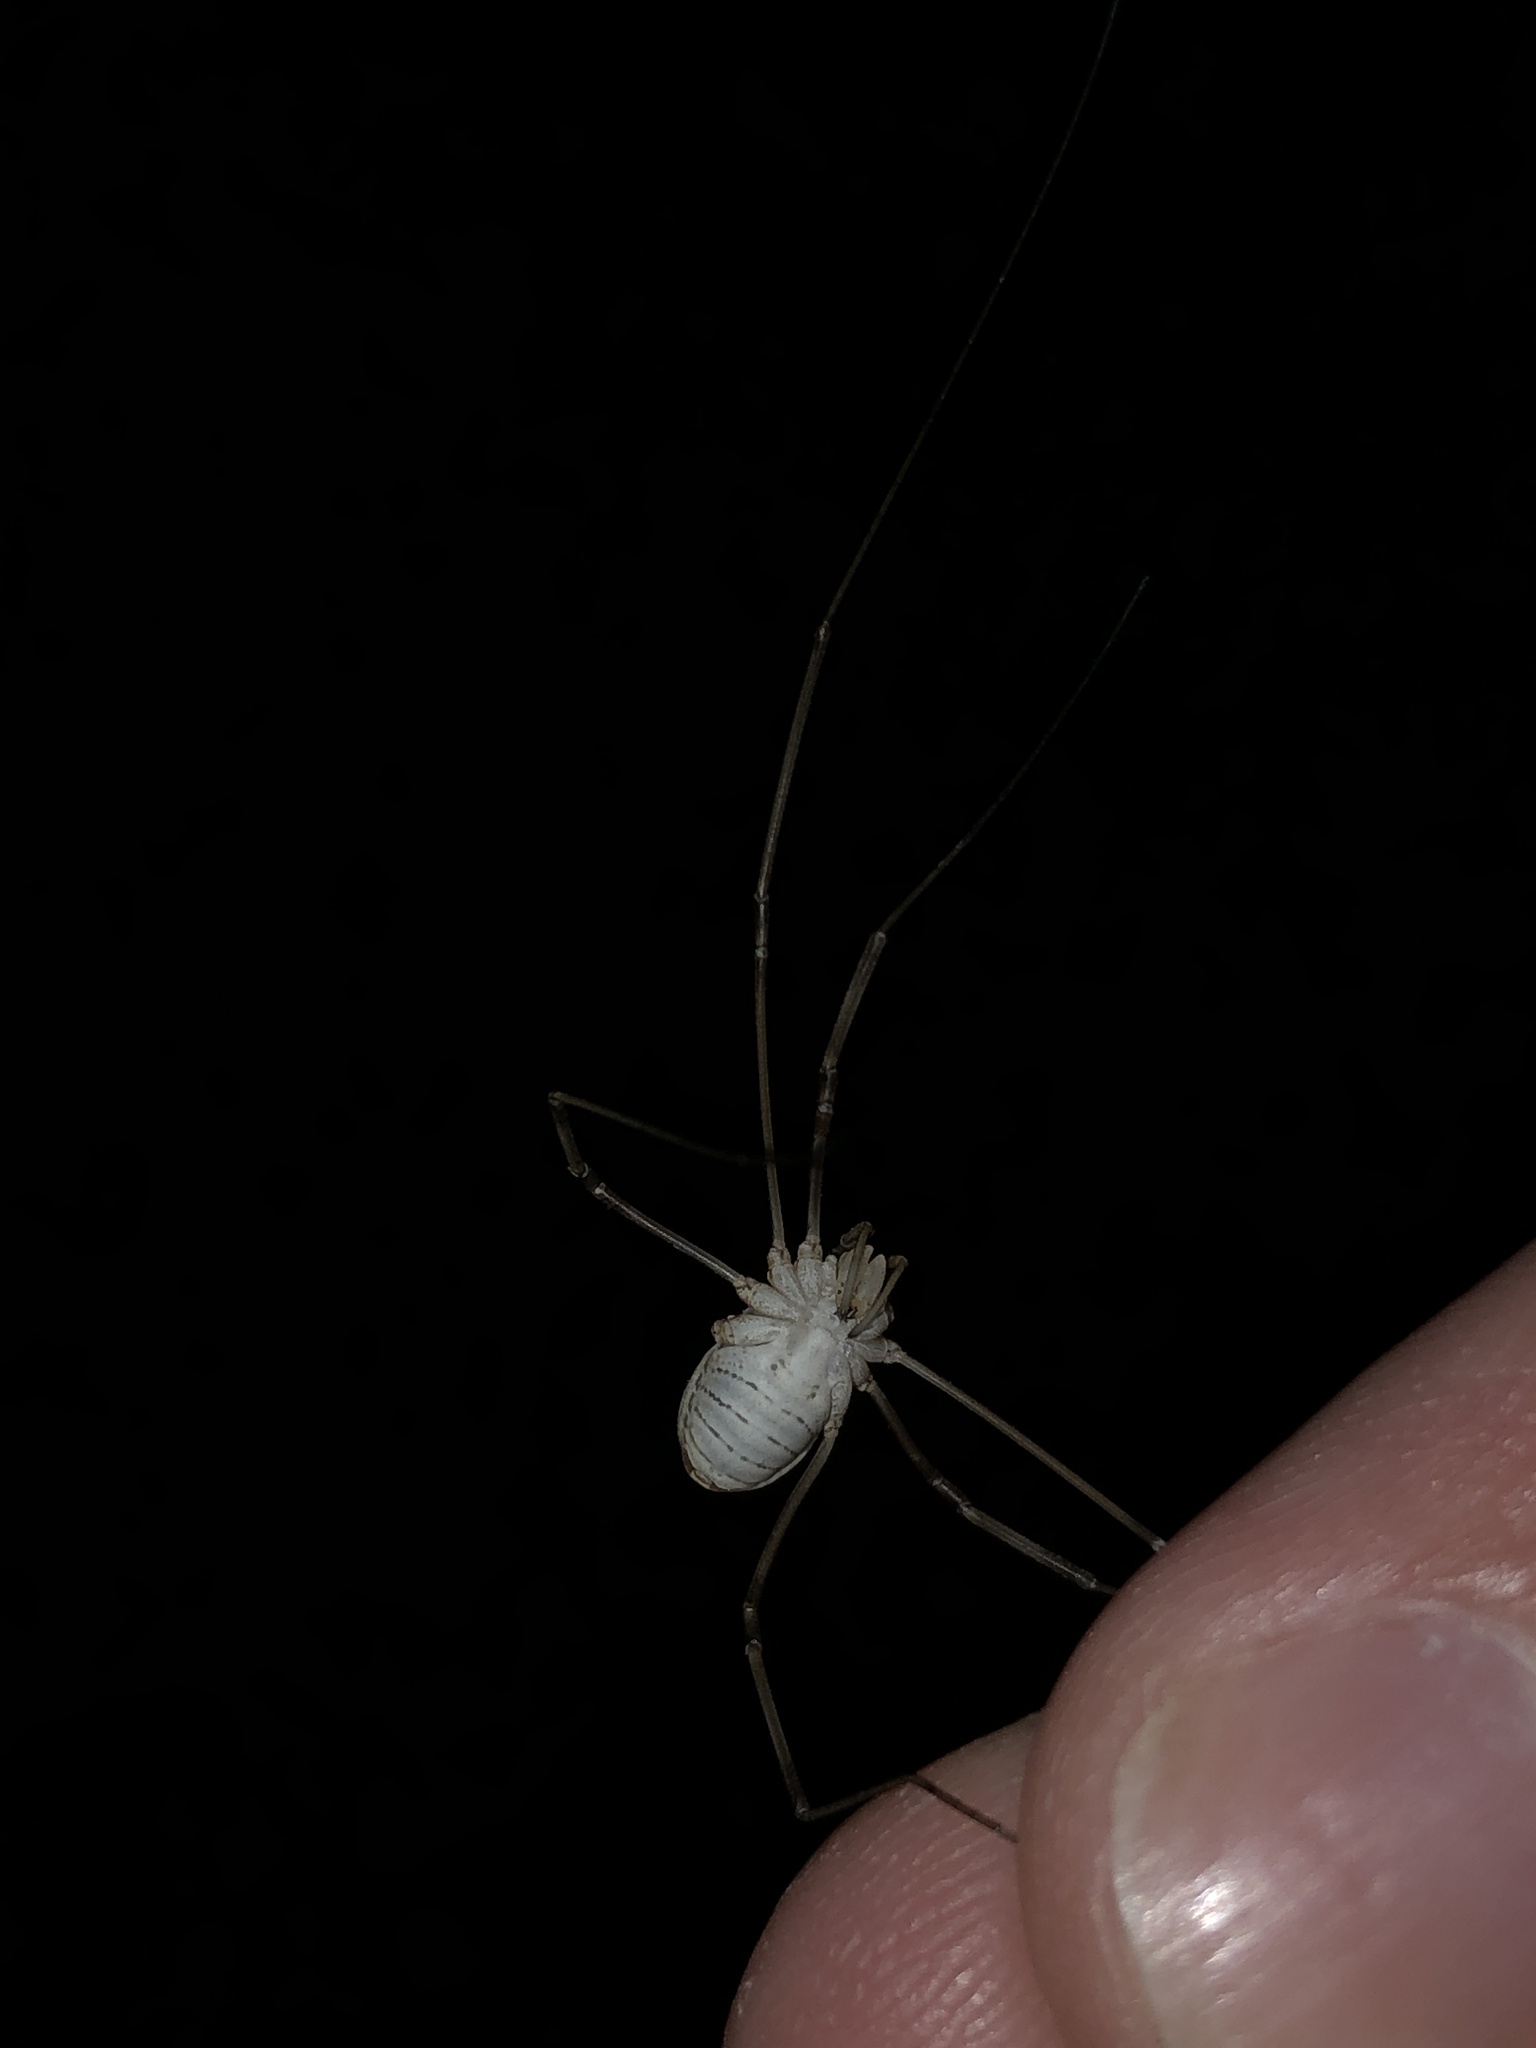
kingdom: Animalia
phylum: Arthropoda
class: Arachnida
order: Opiliones
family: Phalangiidae
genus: Phalangium
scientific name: Phalangium opilio
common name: Daddy longleg
